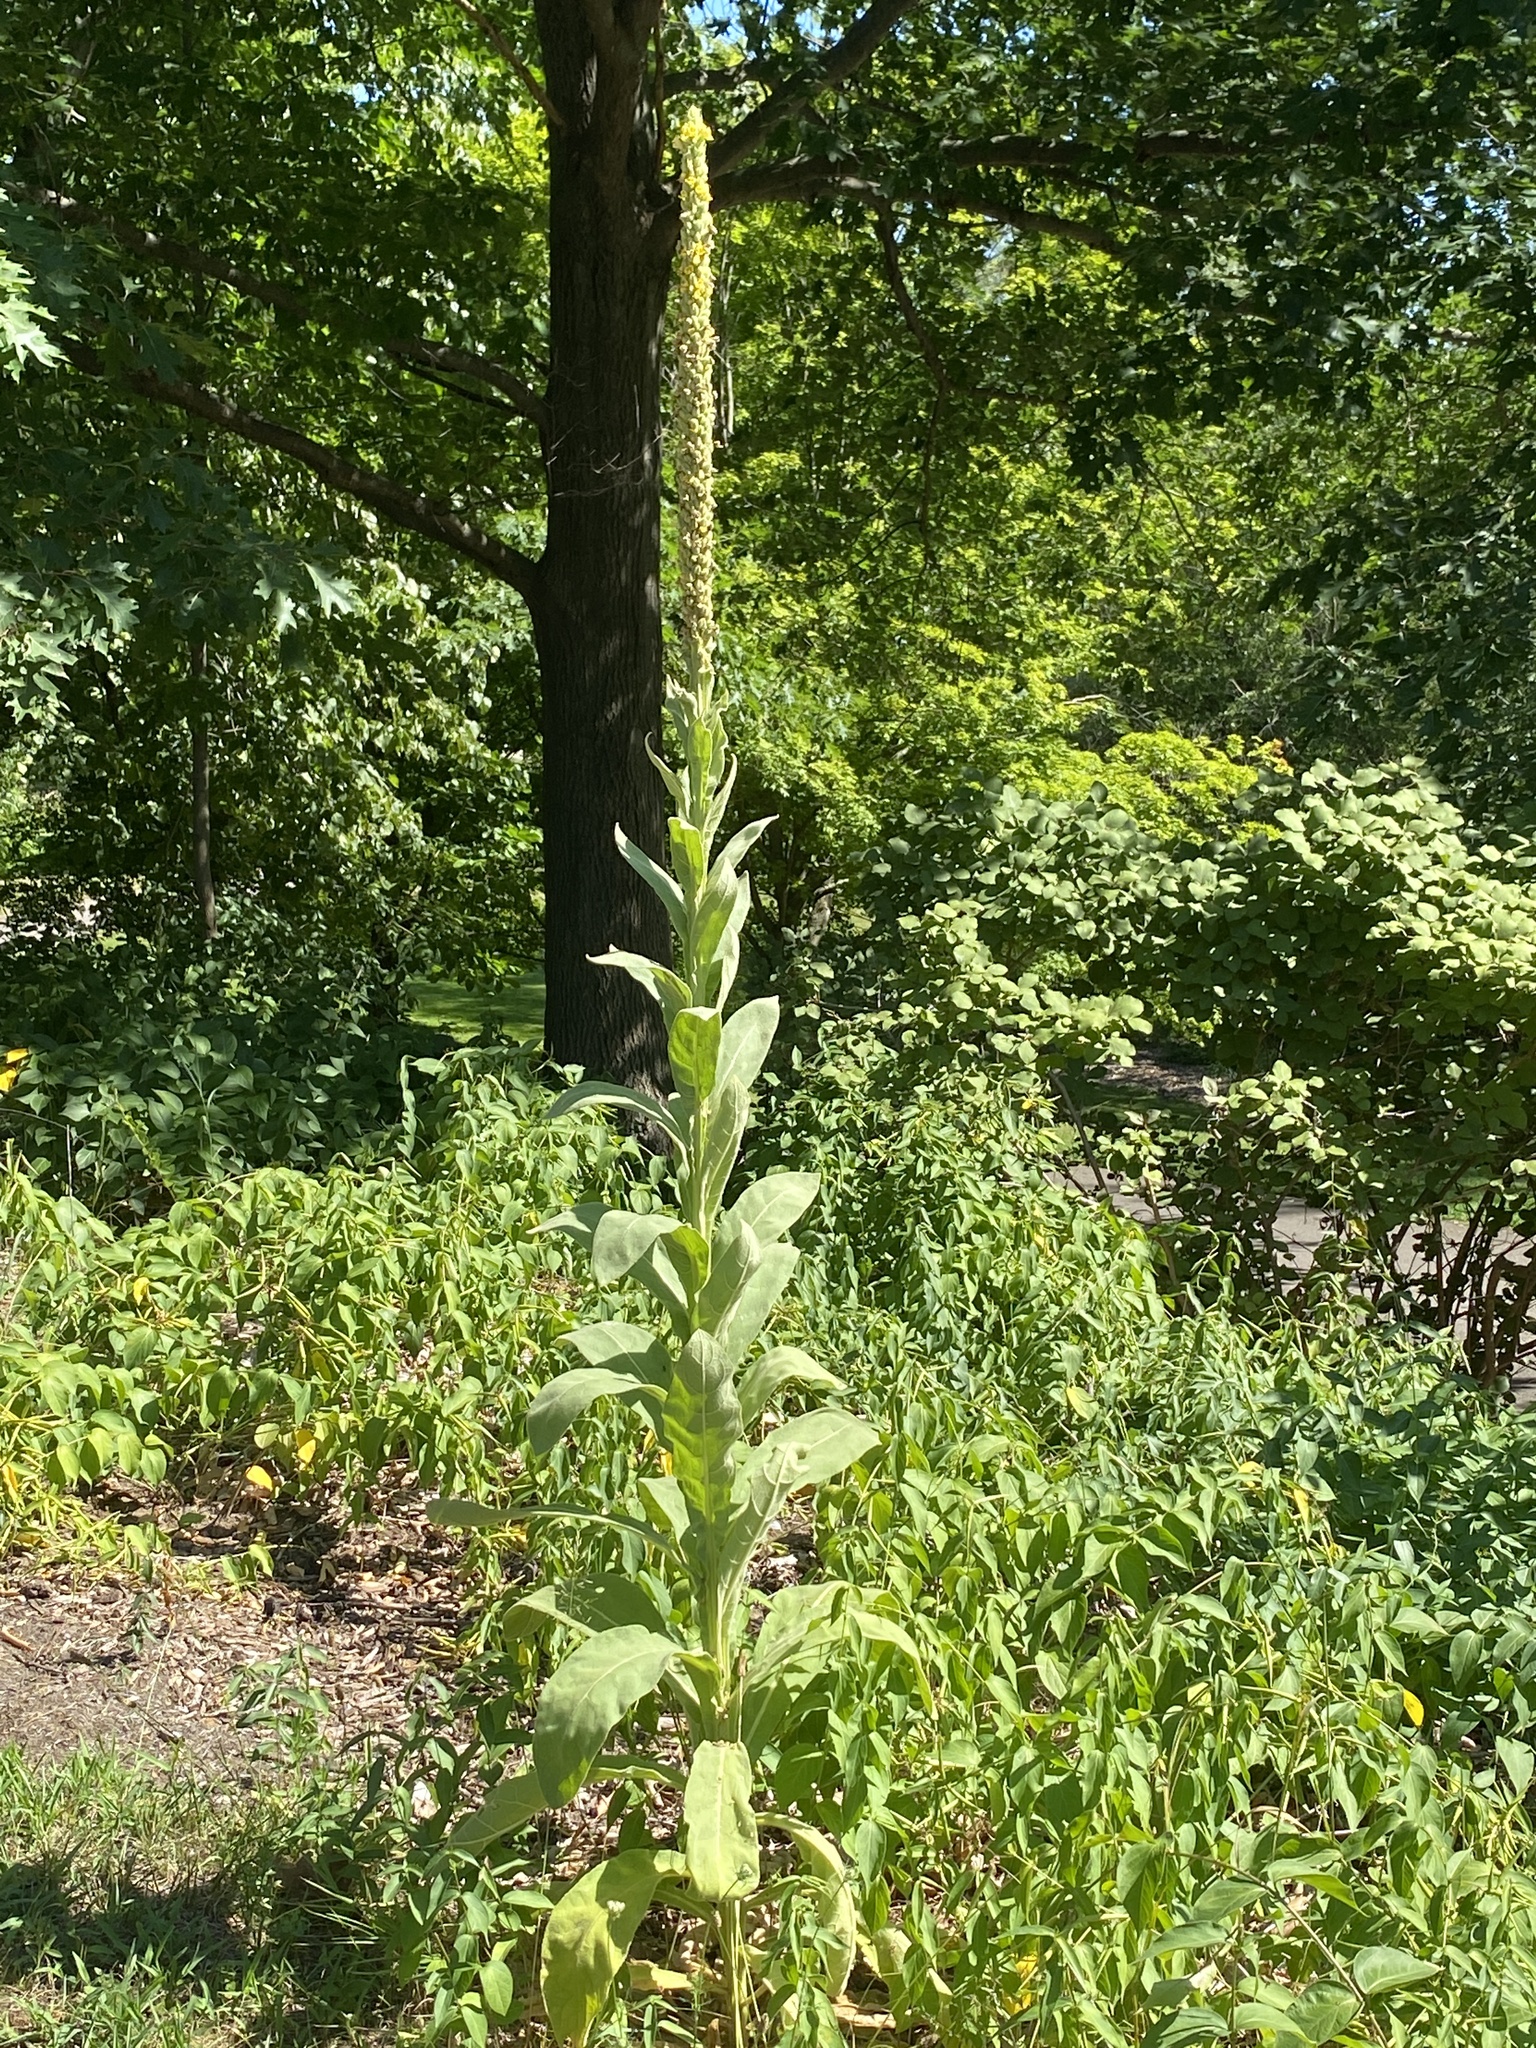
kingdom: Plantae
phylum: Tracheophyta
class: Magnoliopsida
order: Lamiales
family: Scrophulariaceae
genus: Verbascum
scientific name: Verbascum thapsus
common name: Common mullein
